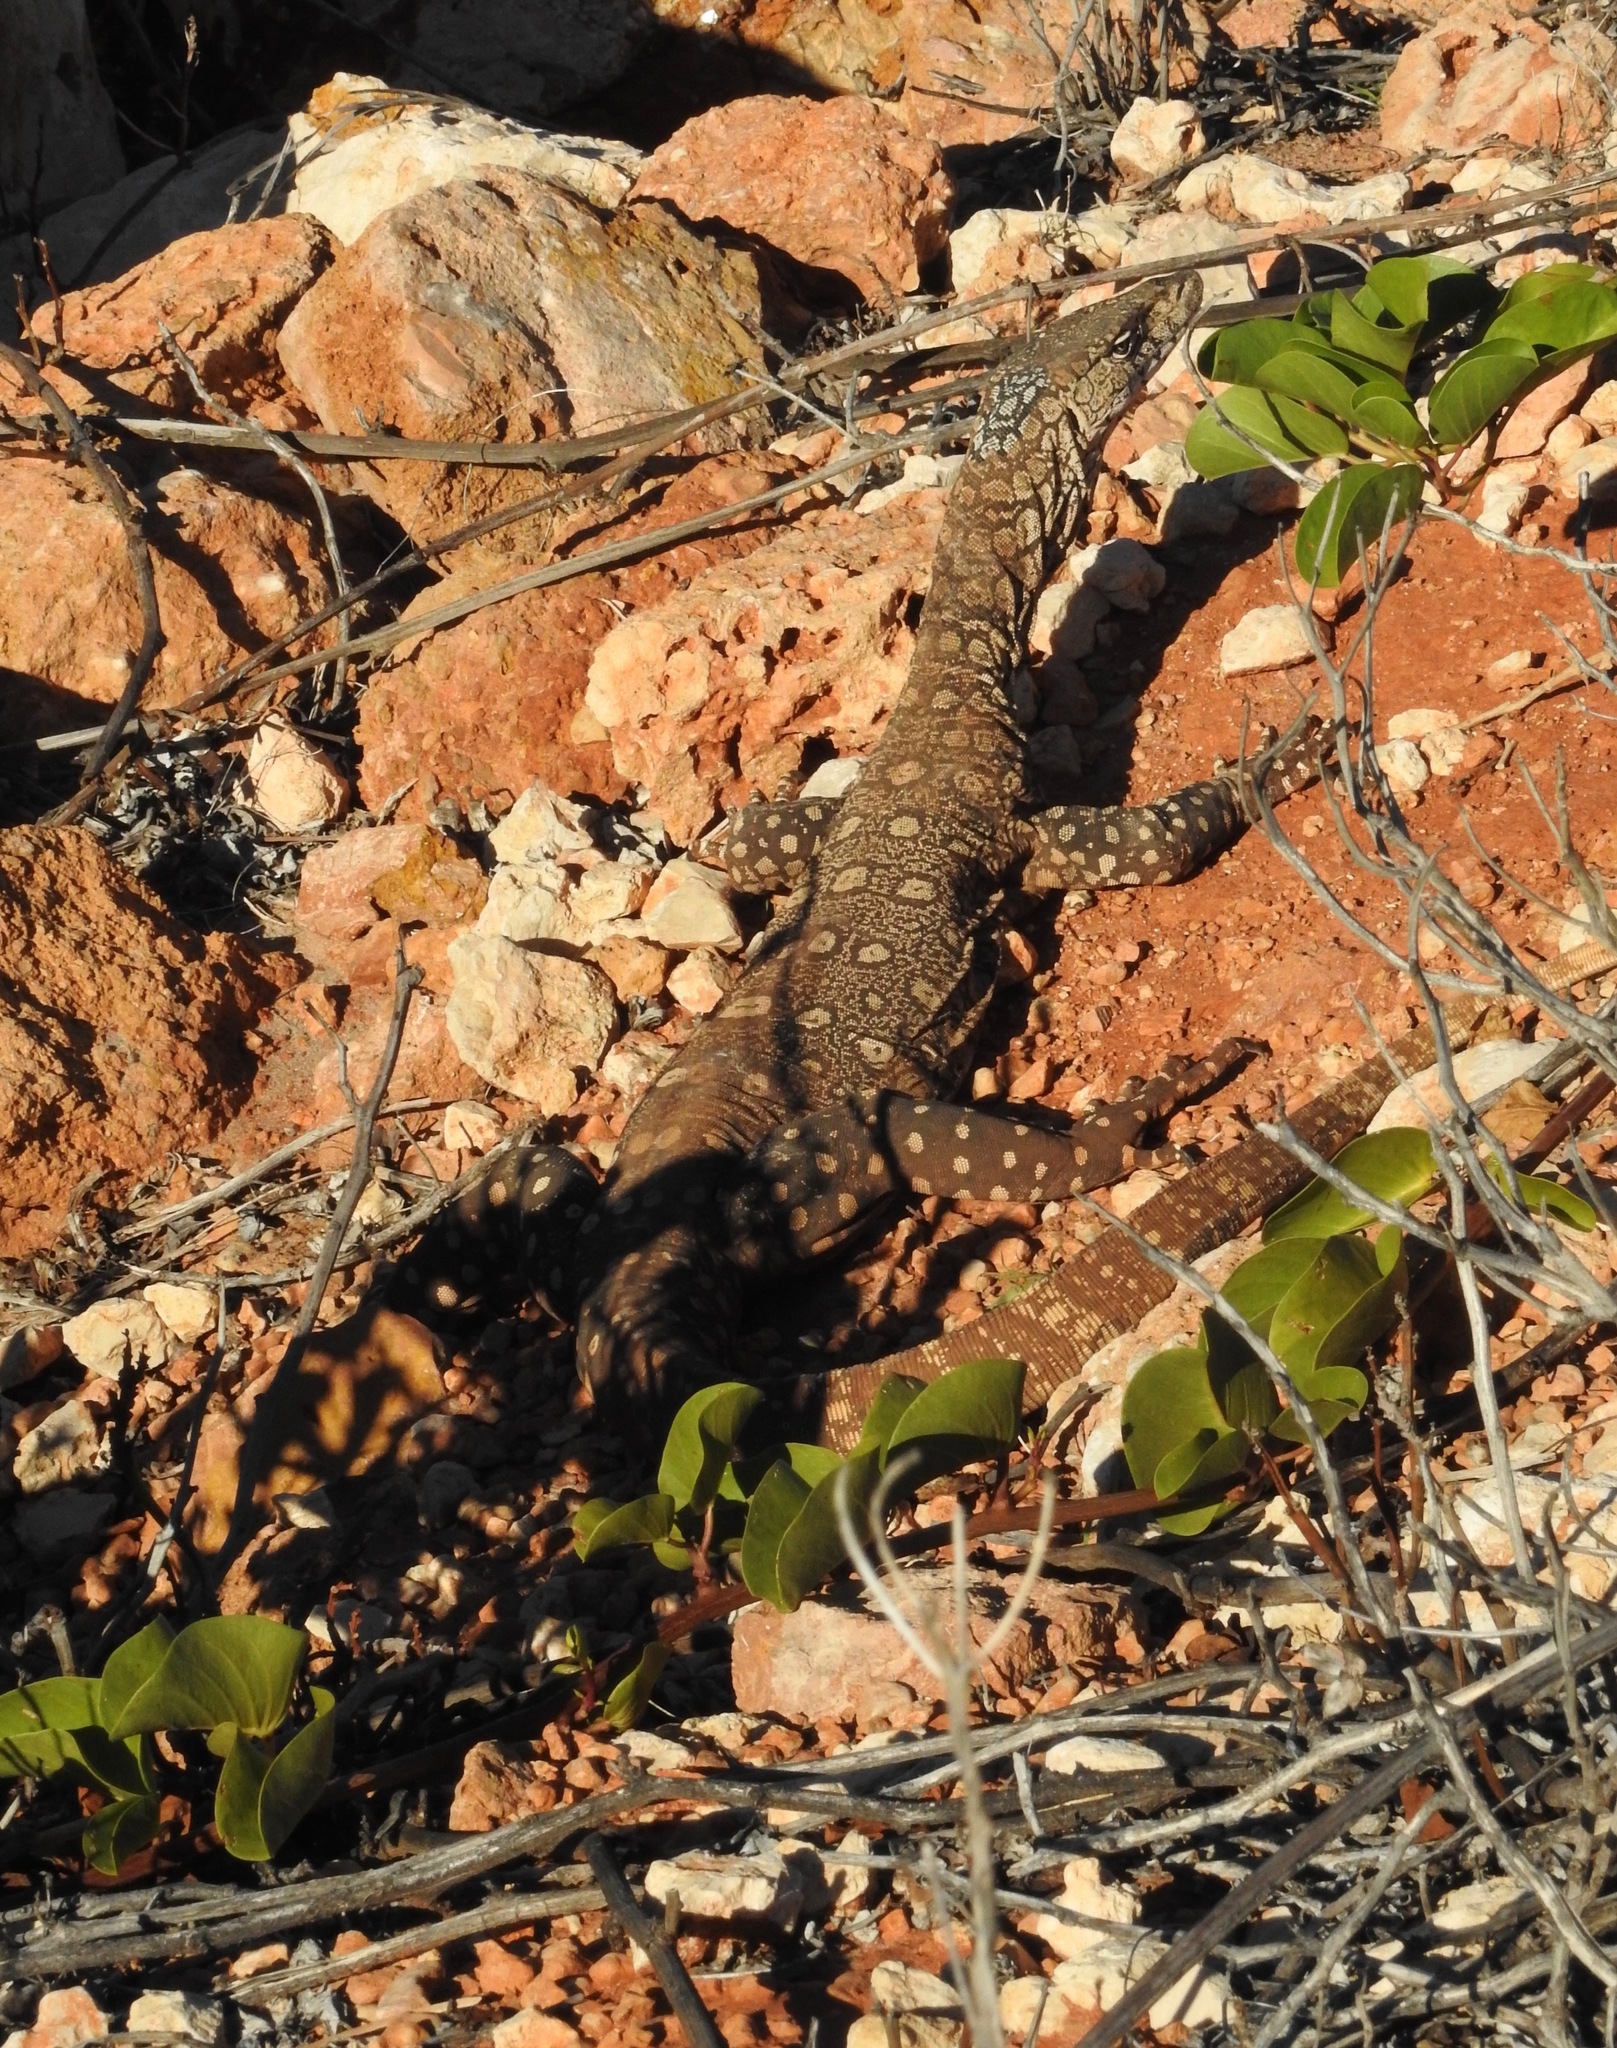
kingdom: Animalia
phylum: Chordata
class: Squamata
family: Varanidae
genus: Varanus
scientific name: Varanus giganteus
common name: Perentie
